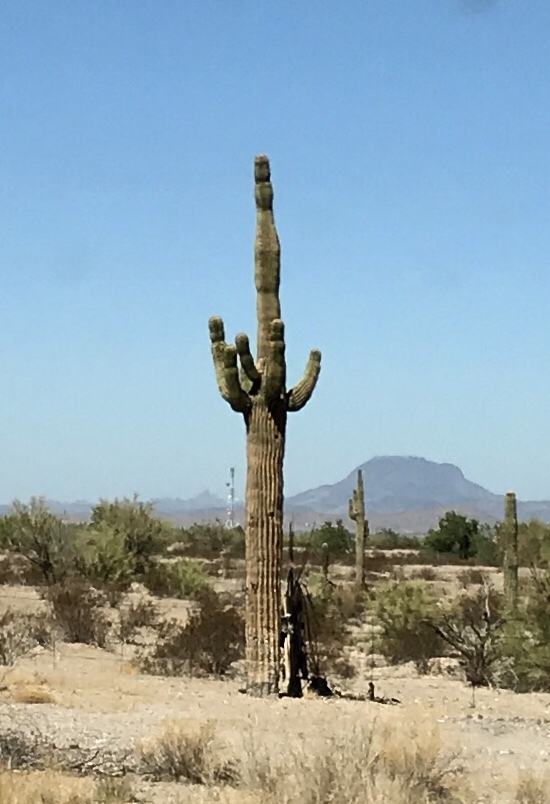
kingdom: Plantae
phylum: Tracheophyta
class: Magnoliopsida
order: Caryophyllales
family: Cactaceae
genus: Carnegiea
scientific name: Carnegiea gigantea
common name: Saguaro
